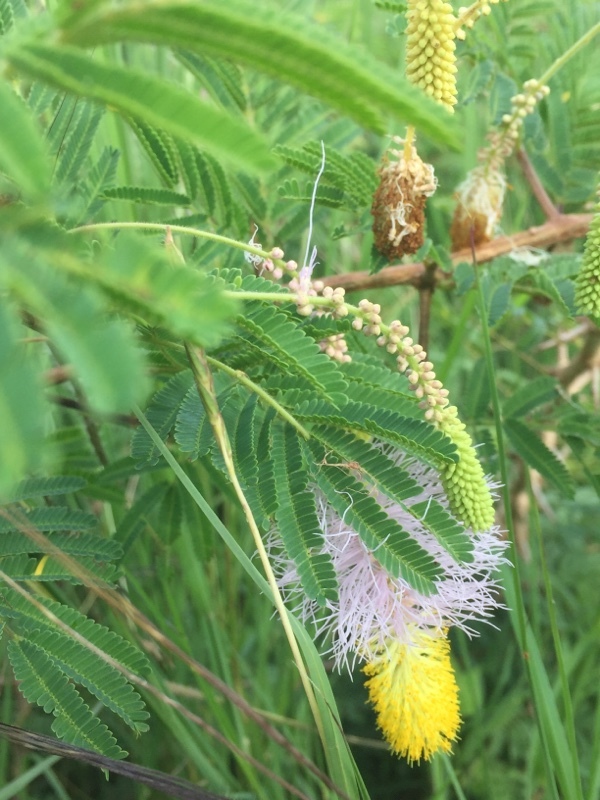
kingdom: Plantae
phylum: Tracheophyta
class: Magnoliopsida
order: Fabales
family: Fabaceae
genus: Dichrostachys
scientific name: Dichrostachys cinerea
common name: Sicklebush
